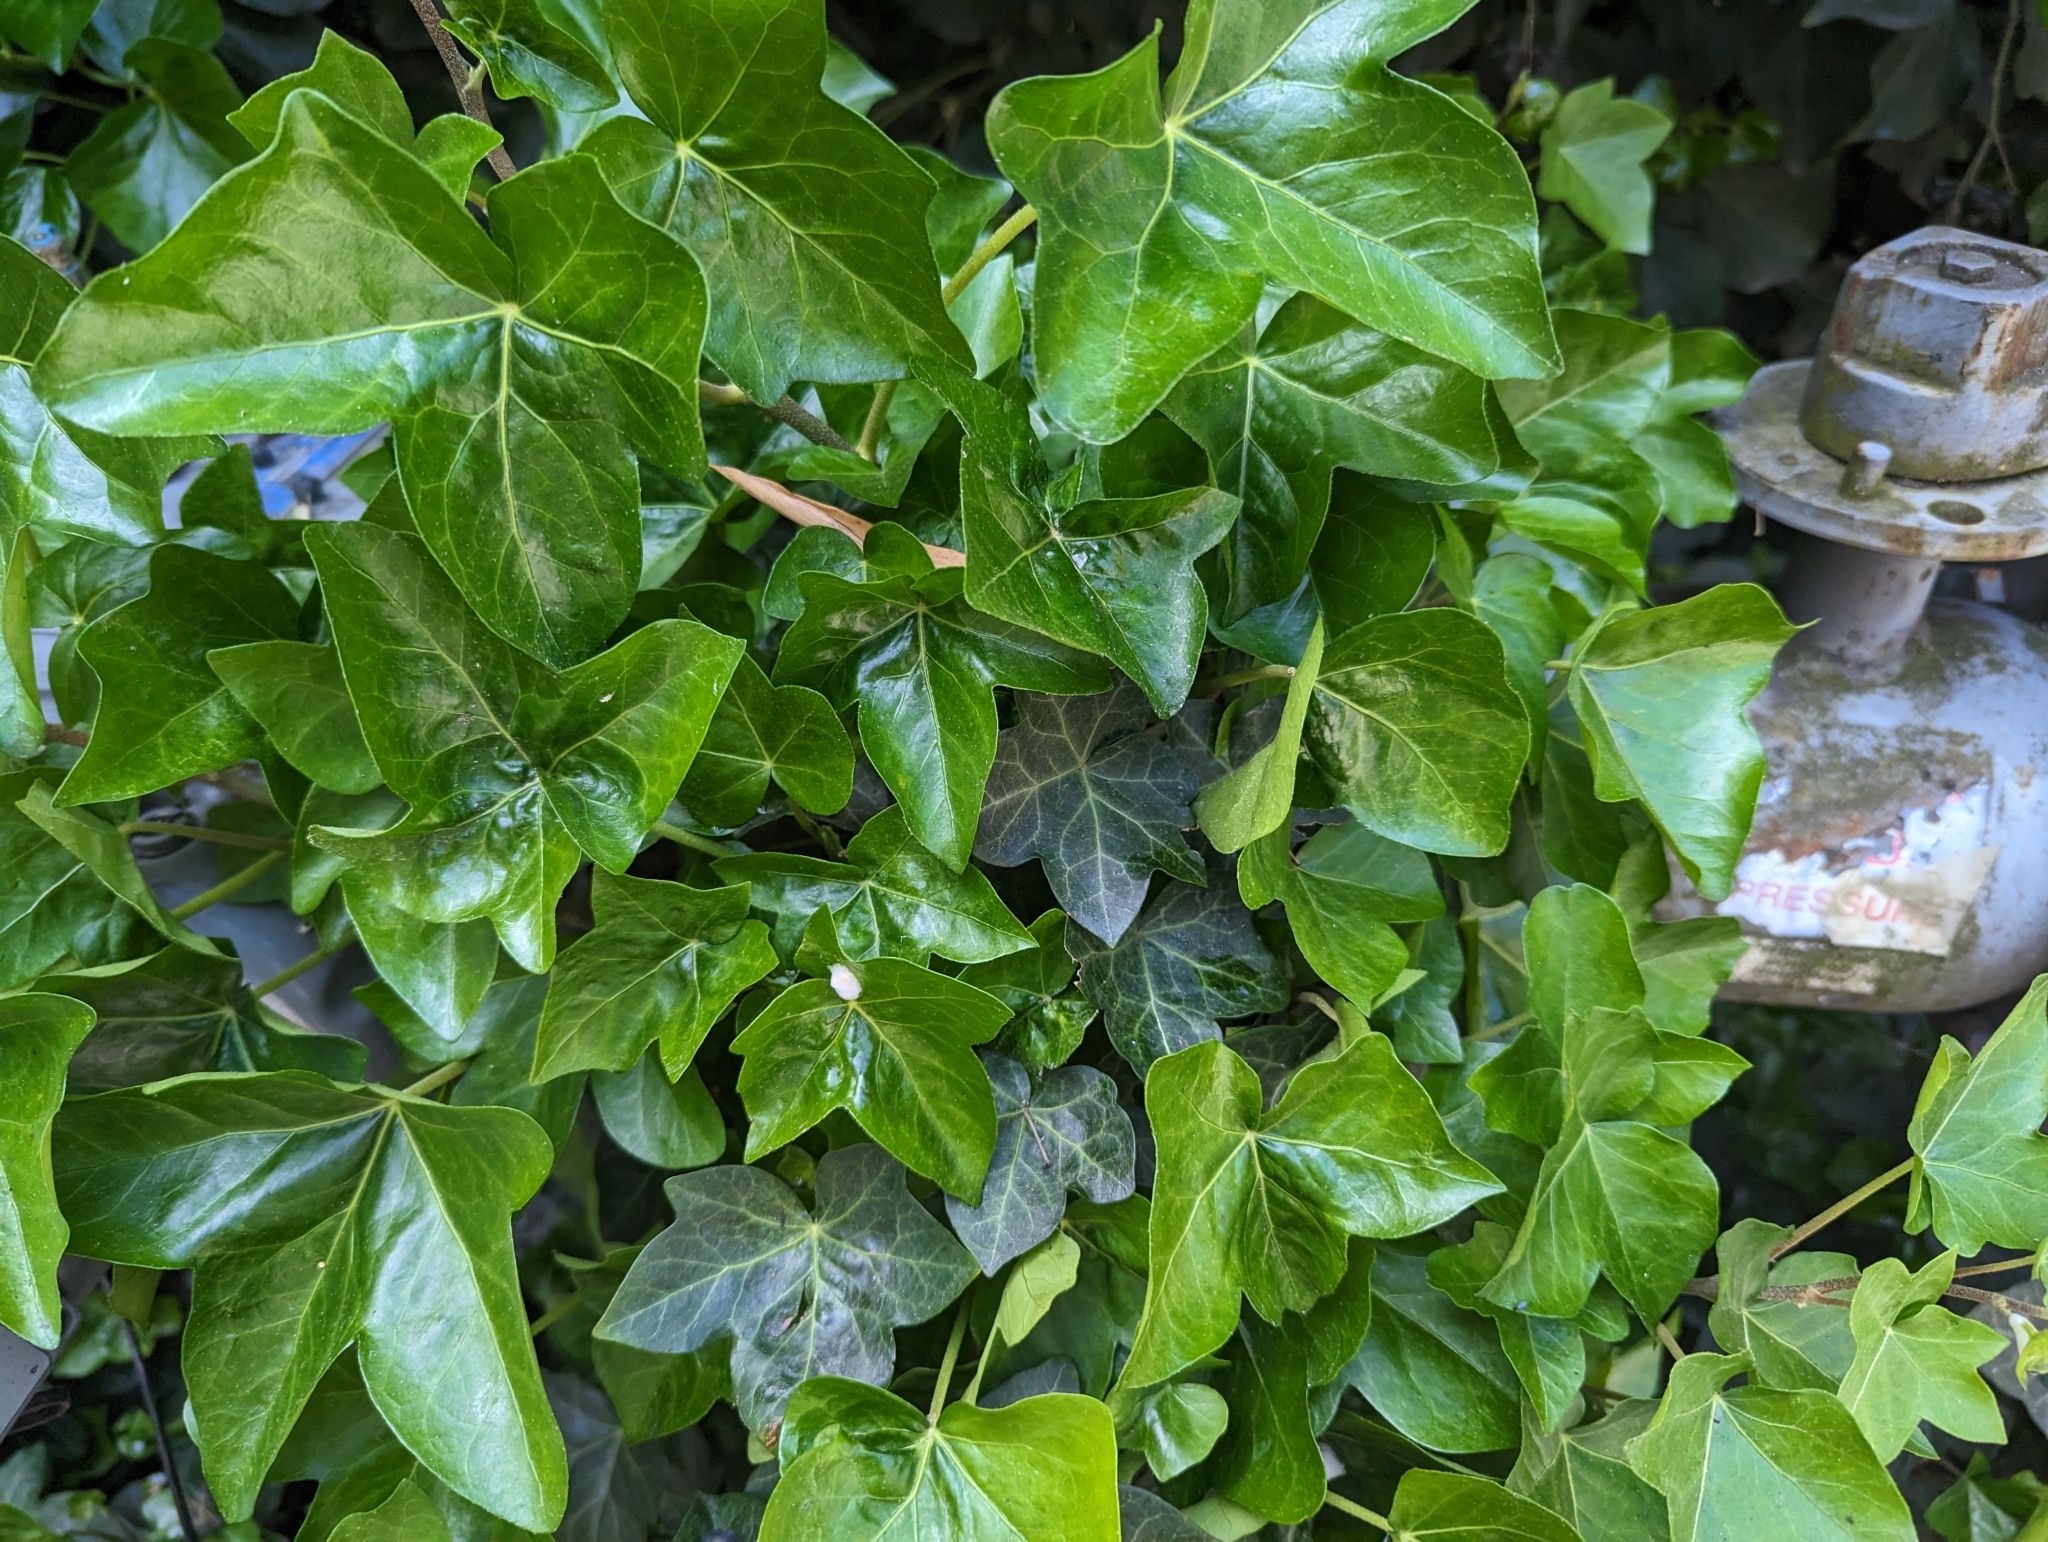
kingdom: Plantae
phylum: Tracheophyta
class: Magnoliopsida
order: Apiales
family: Araliaceae
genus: Hedera
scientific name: Hedera helix
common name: Ivy
